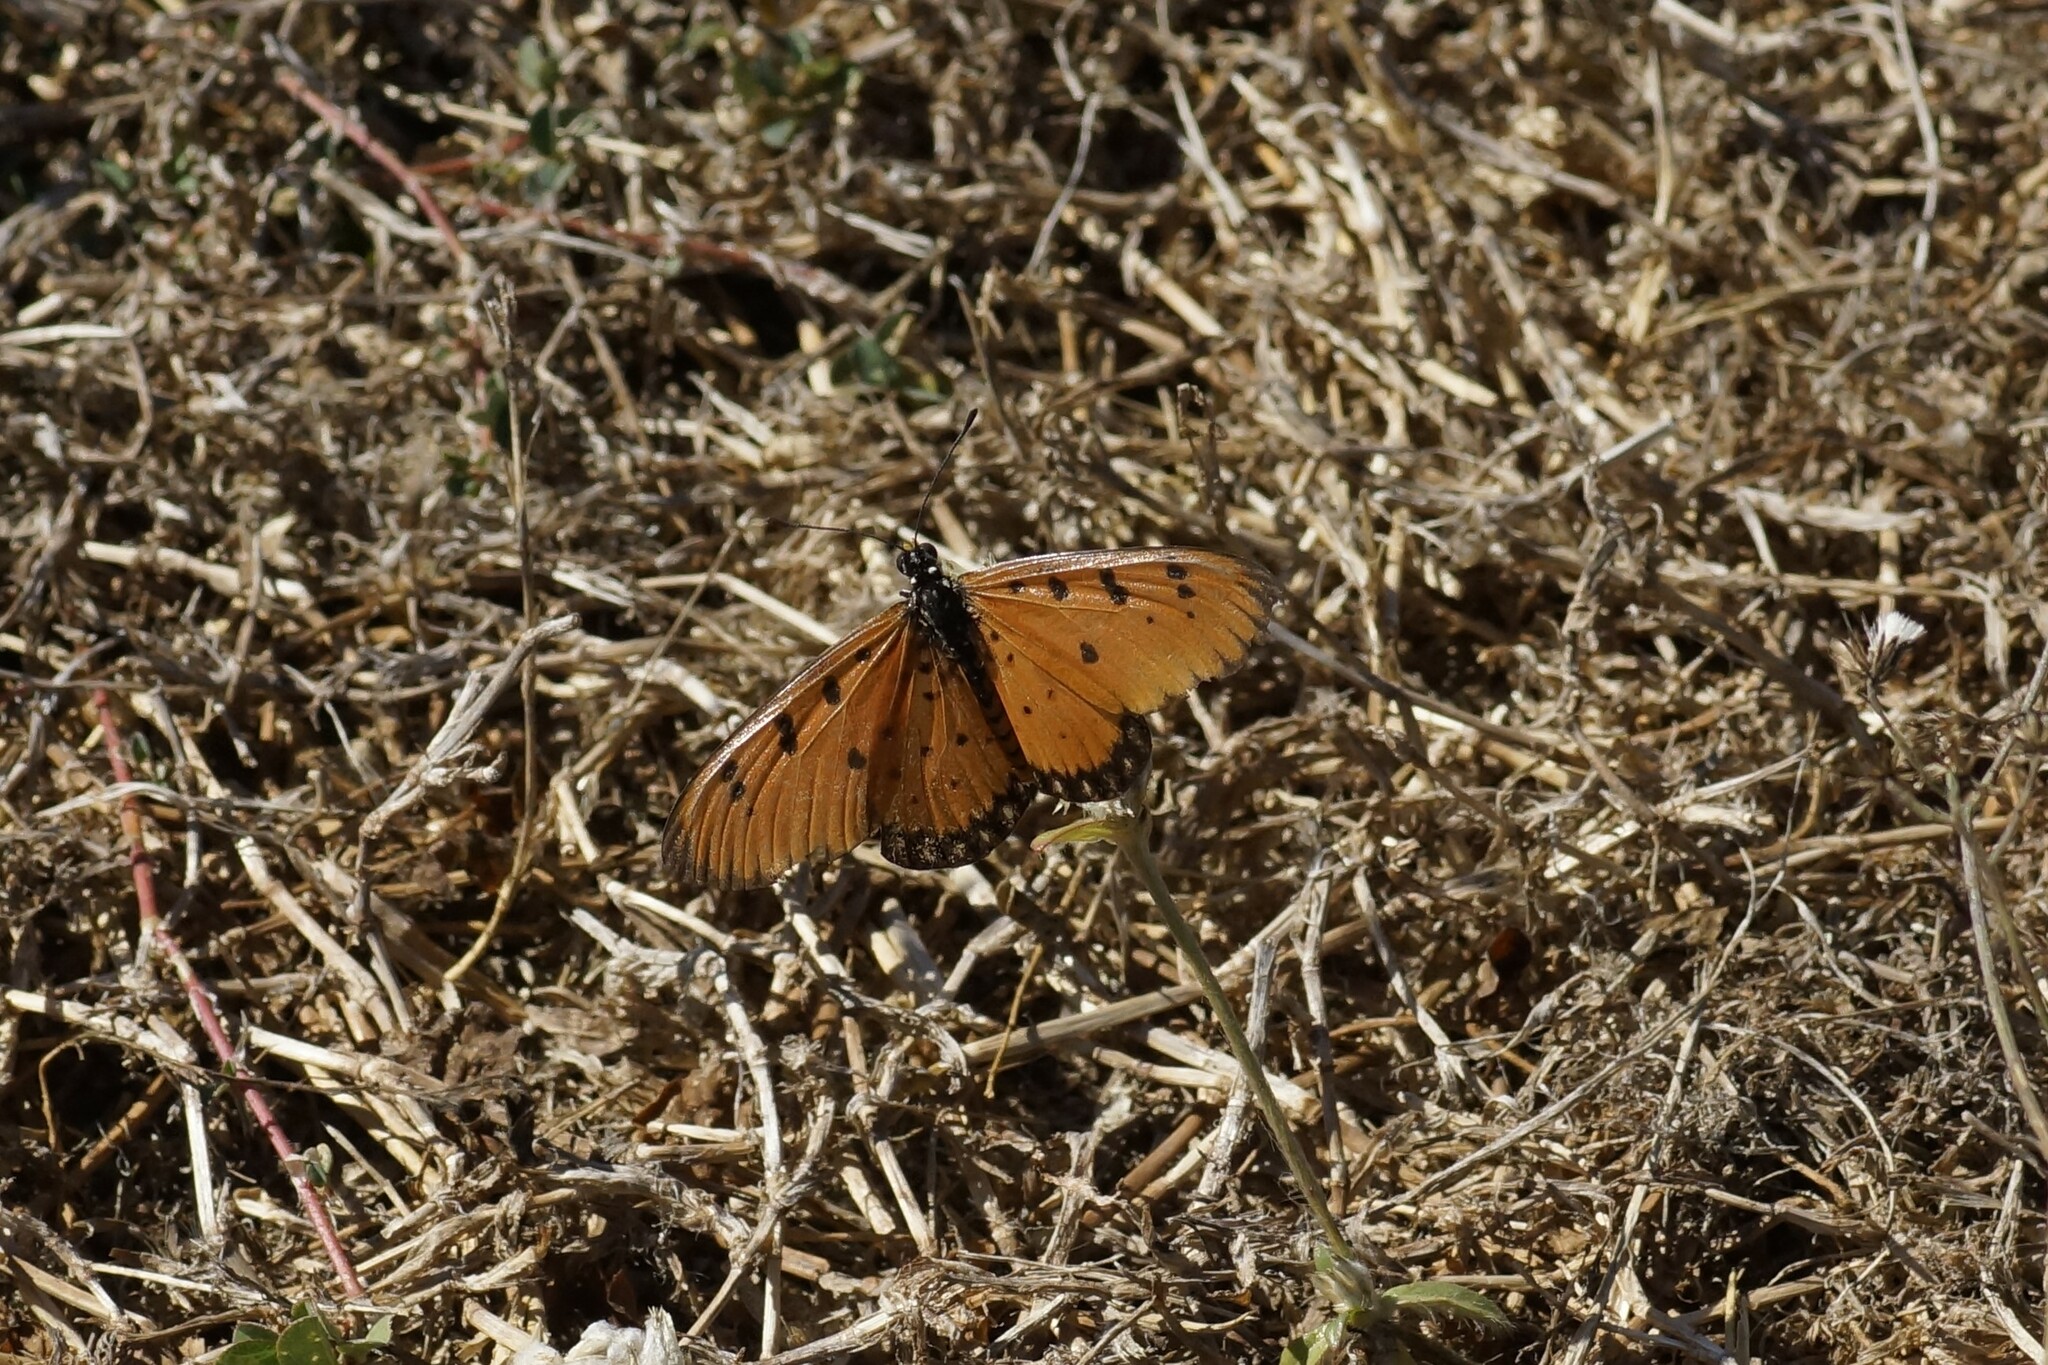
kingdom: Animalia
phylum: Arthropoda
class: Insecta
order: Lepidoptera
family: Nymphalidae
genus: Acraea
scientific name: Acraea terpsicore
